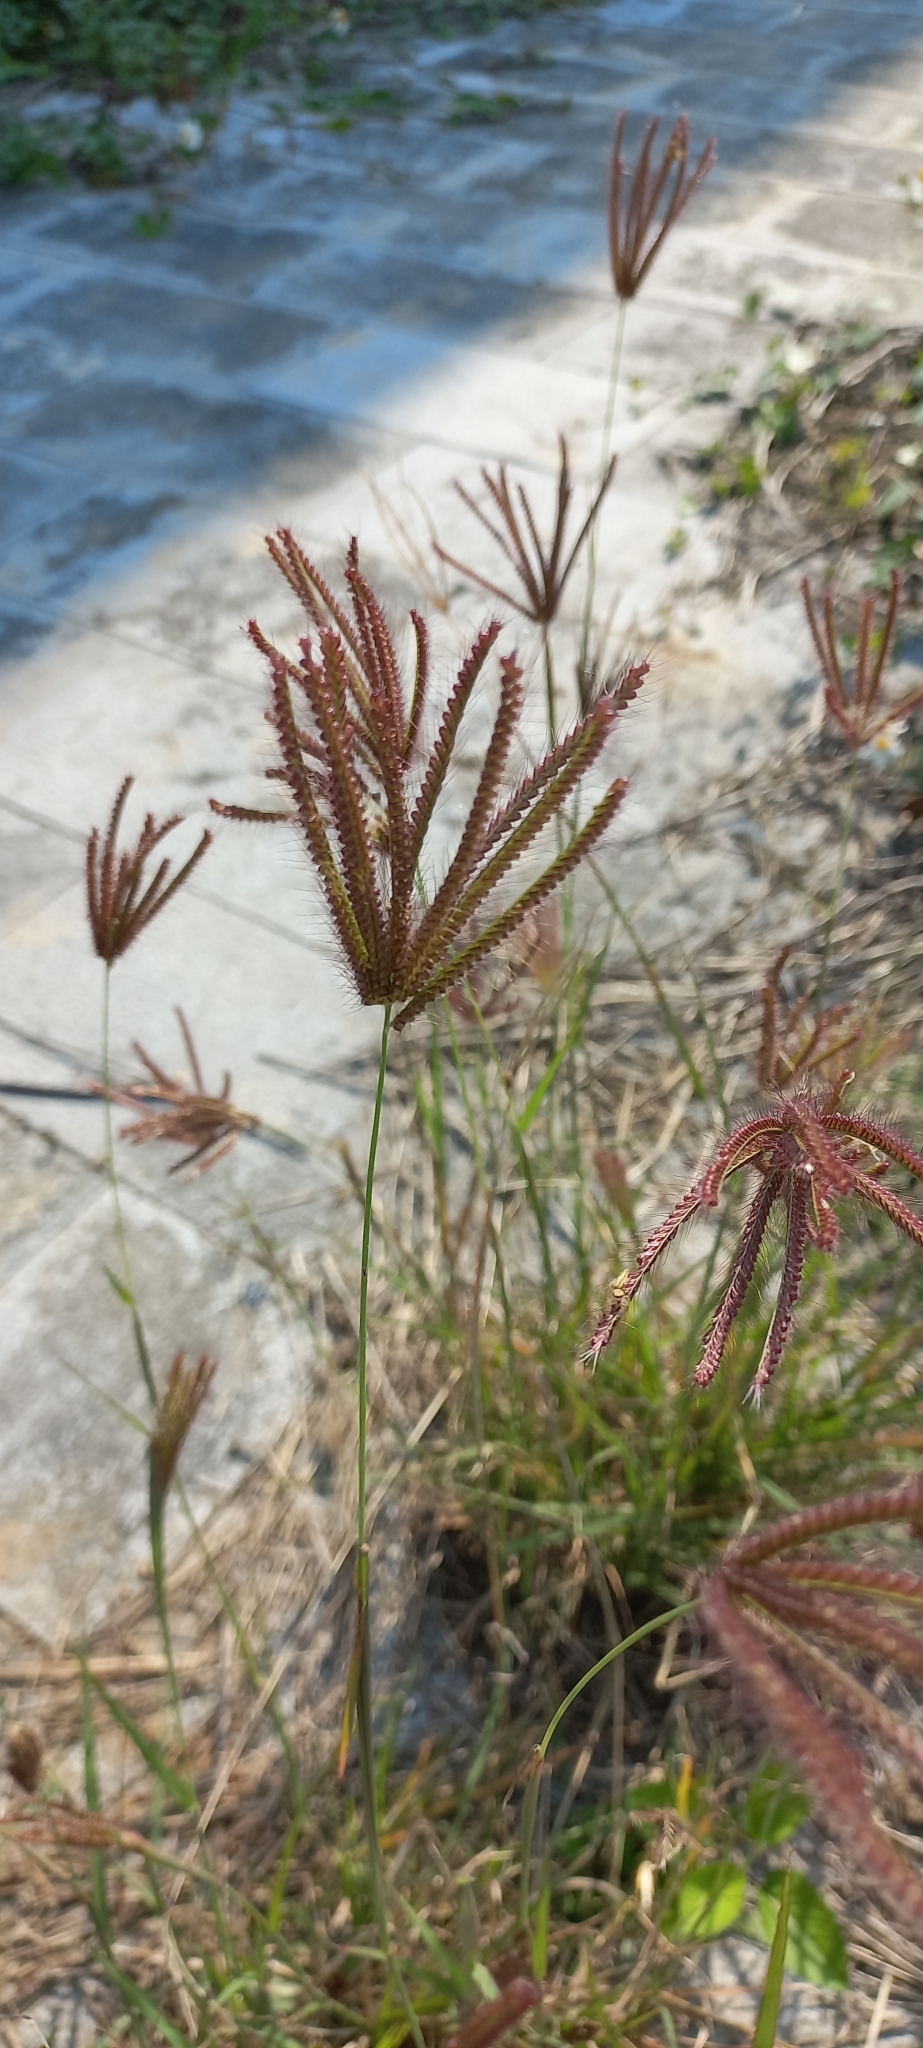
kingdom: Plantae
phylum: Tracheophyta
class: Liliopsida
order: Poales
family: Poaceae
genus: Chloris
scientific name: Chloris barbata
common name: Swollen fingergrass
